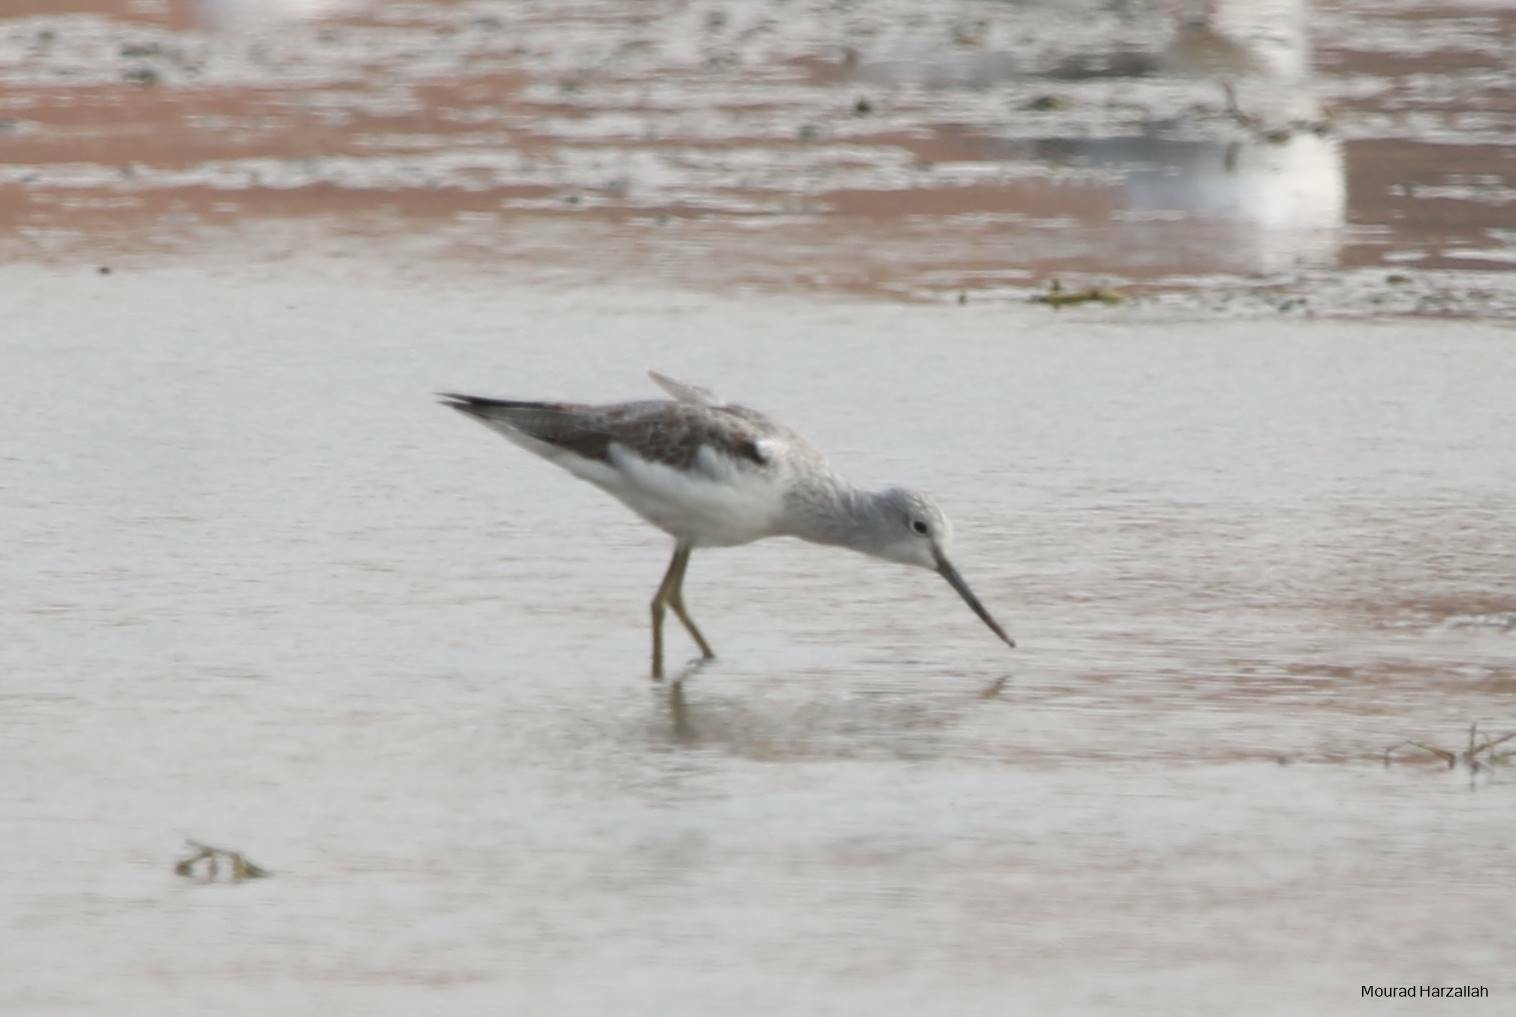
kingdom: Animalia
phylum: Chordata
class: Aves
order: Charadriiformes
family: Scolopacidae
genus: Tringa
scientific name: Tringa nebularia
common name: Common greenshank
